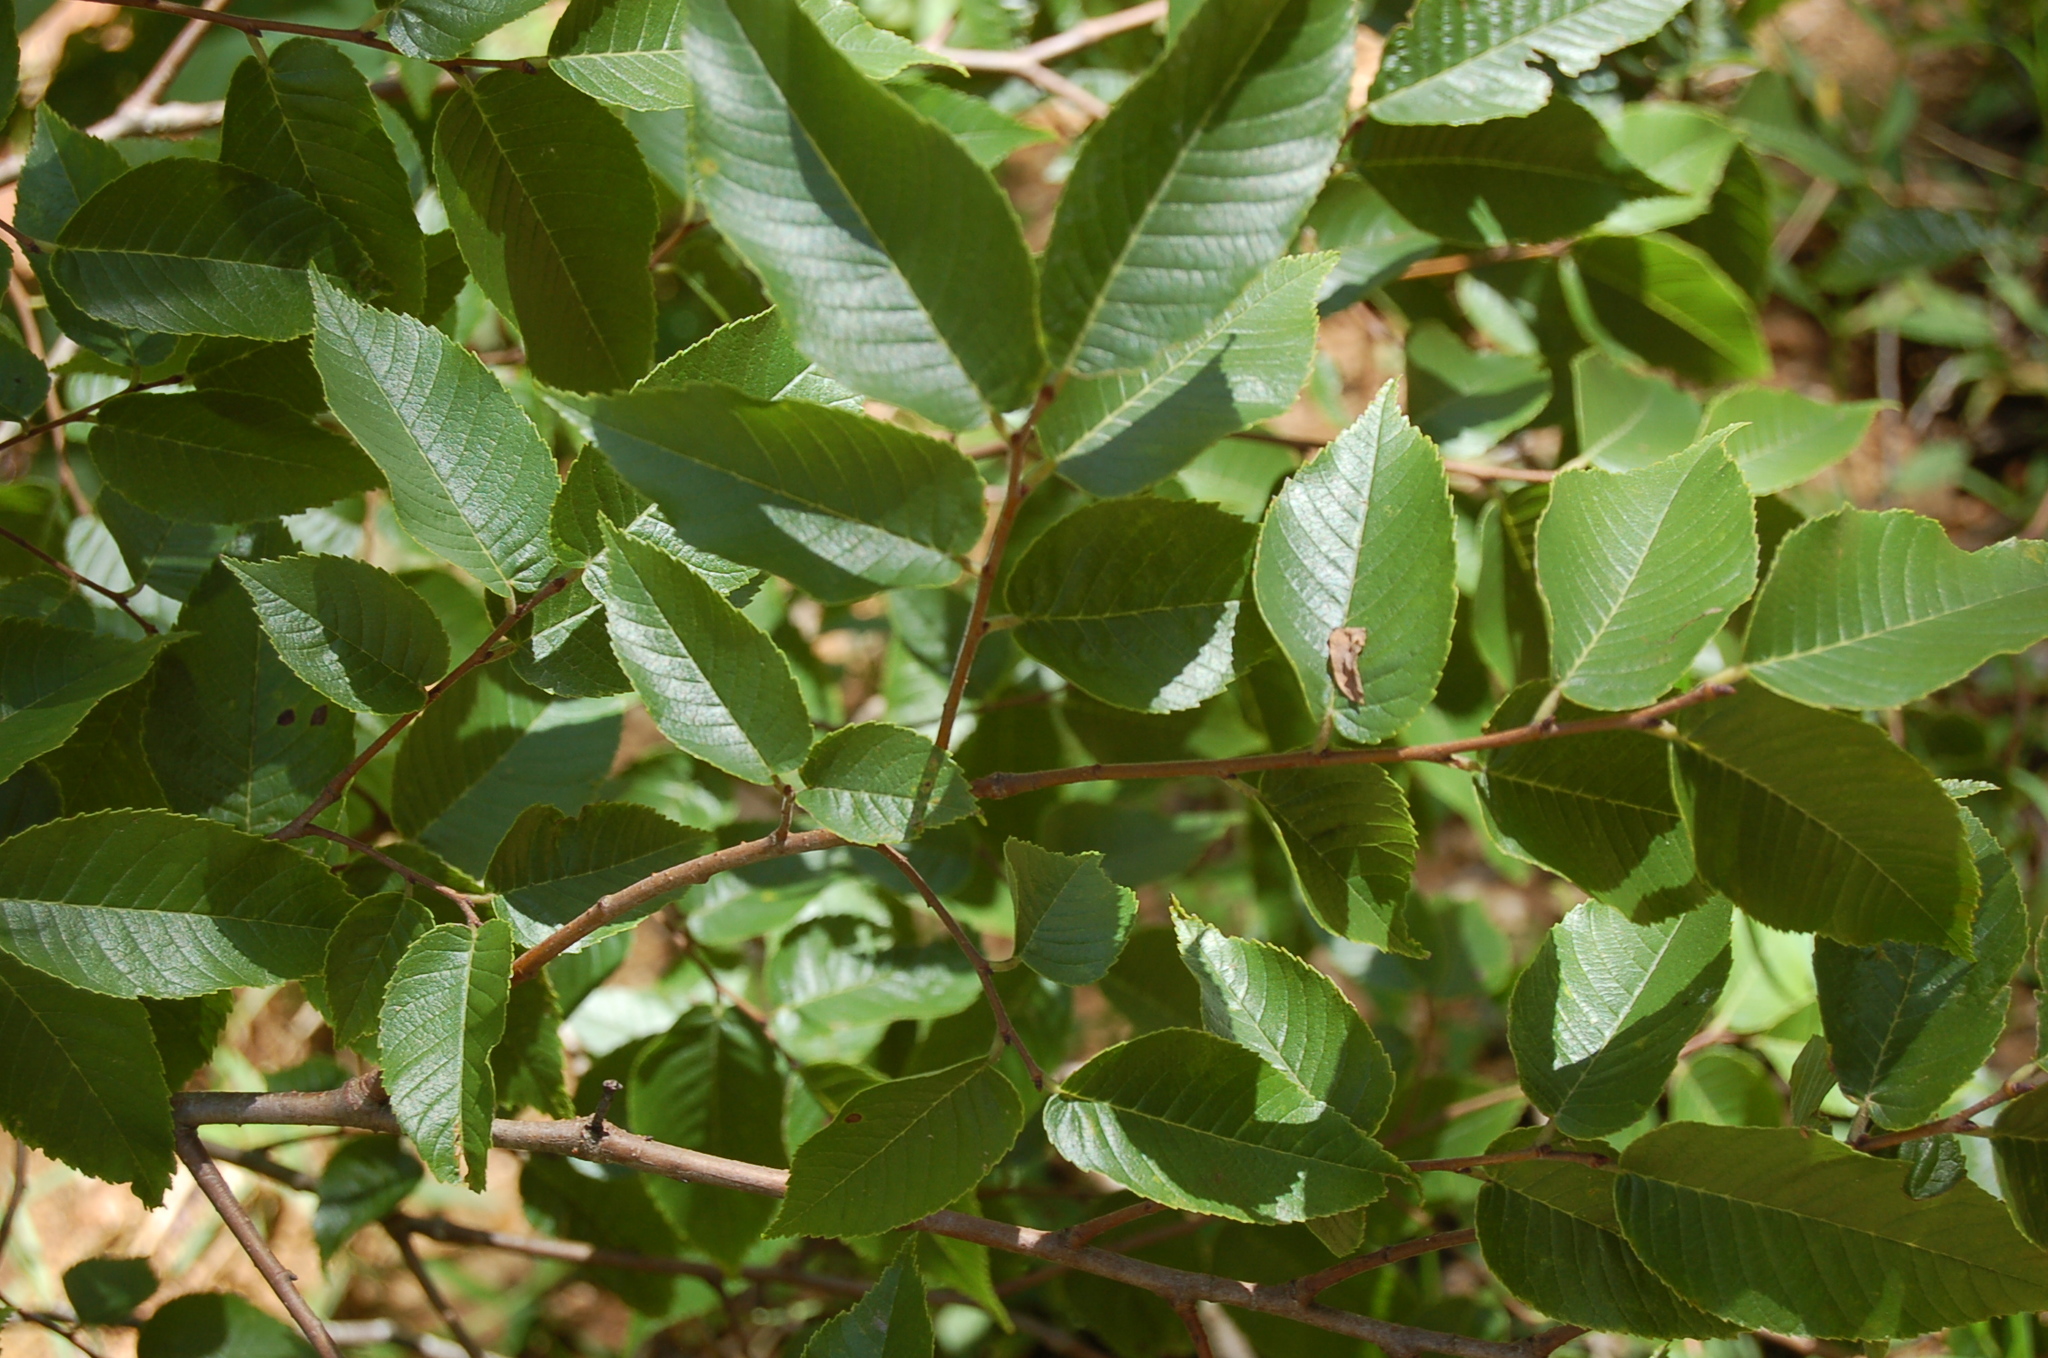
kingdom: Plantae
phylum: Tracheophyta
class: Magnoliopsida
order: Rosales
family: Ulmaceae
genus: Ulmus
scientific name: Ulmus mexicana
